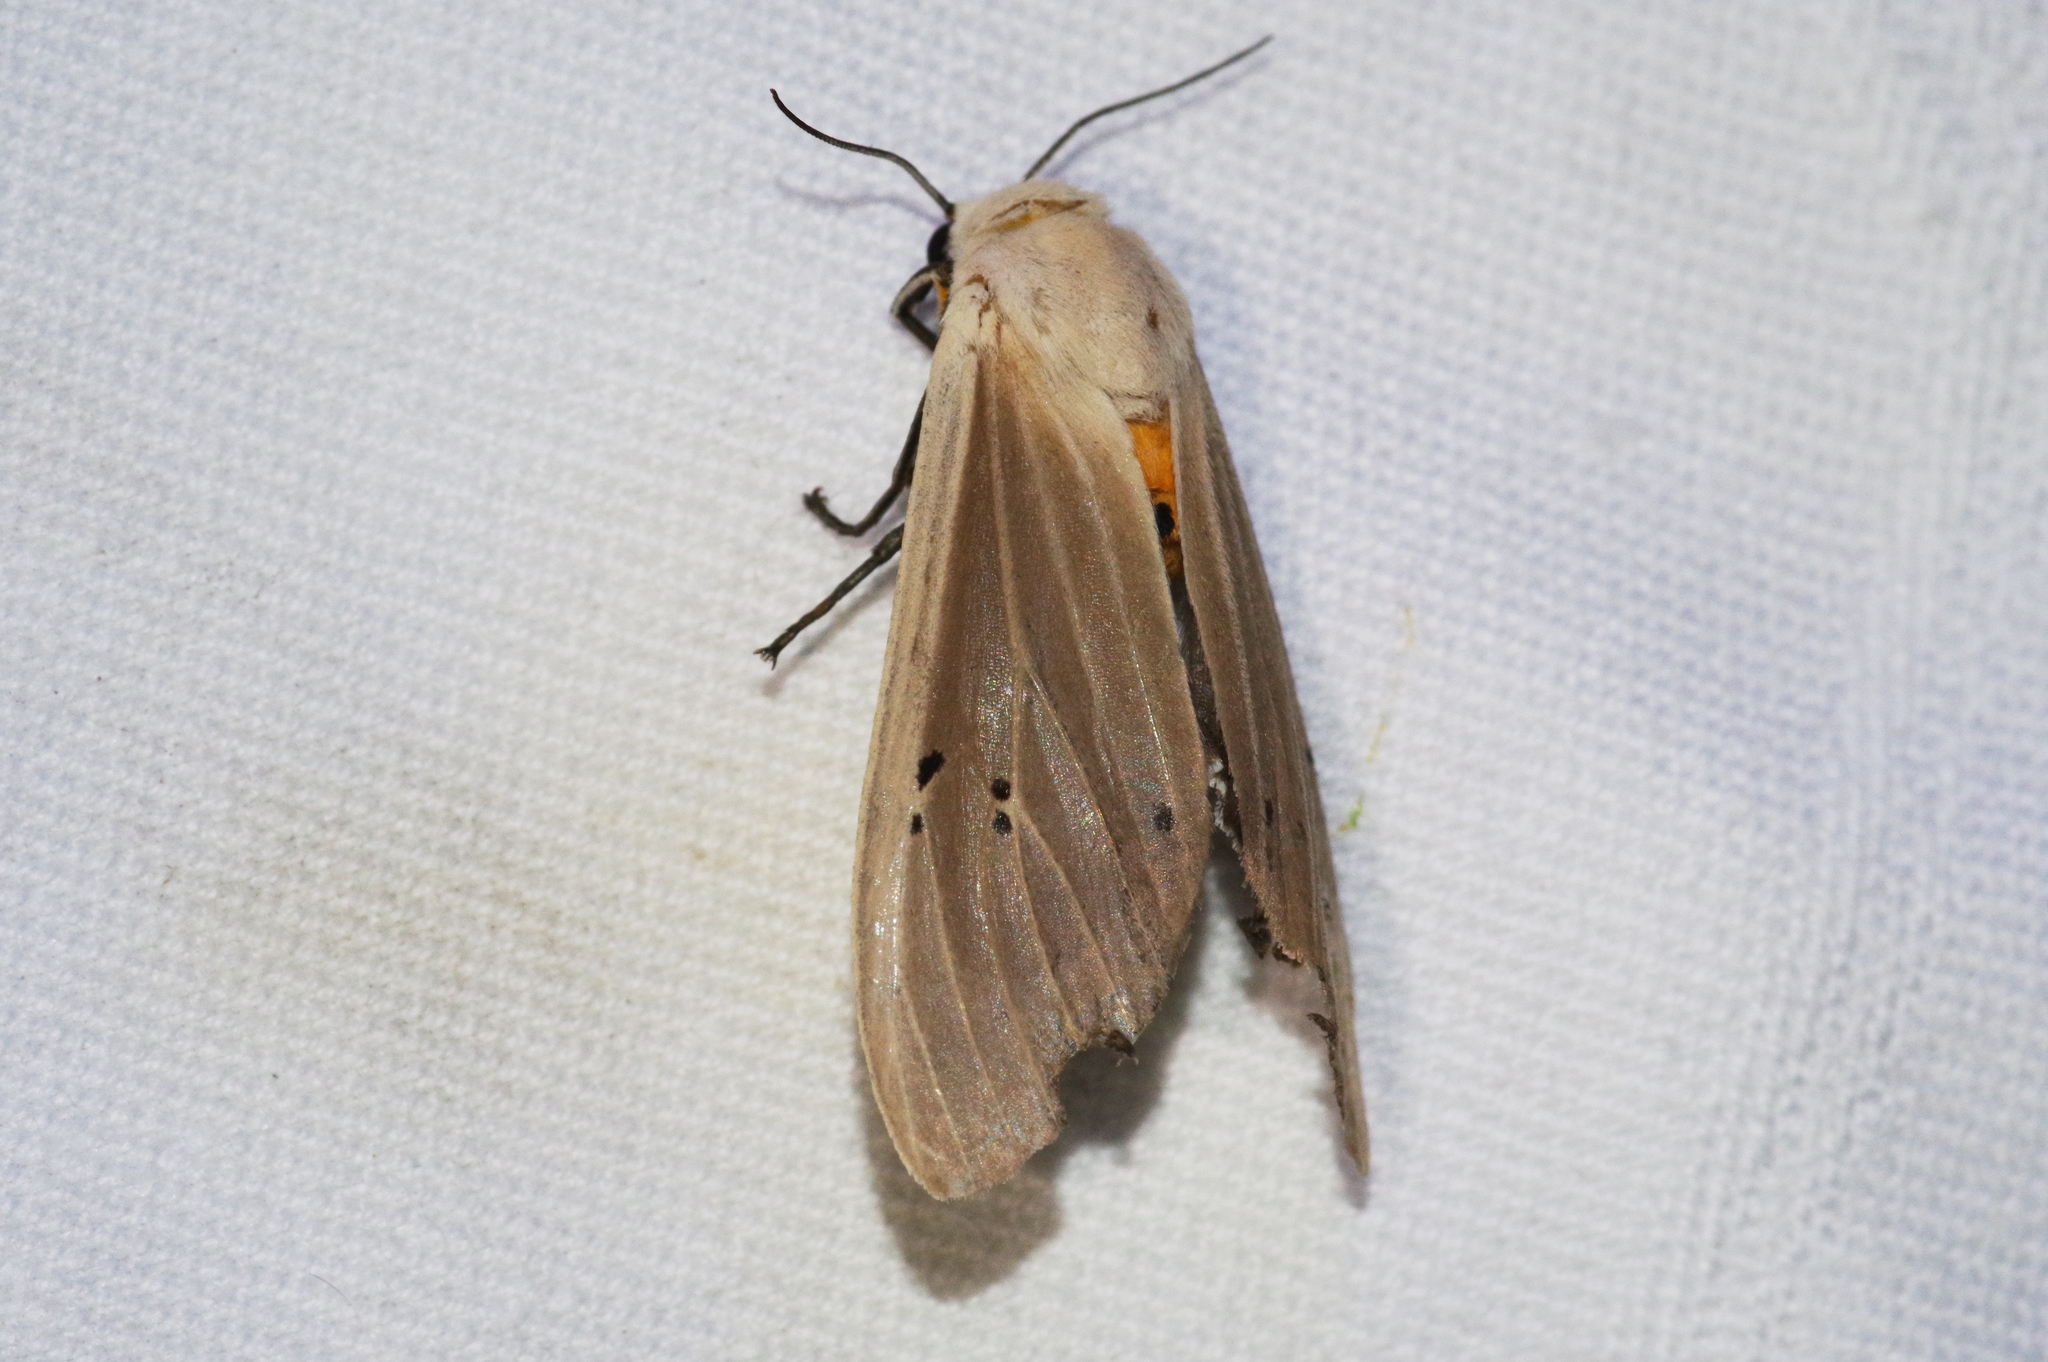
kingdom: Animalia
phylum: Arthropoda
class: Insecta
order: Lepidoptera
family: Erebidae
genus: Creatonotos
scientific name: Creatonotos transiens
